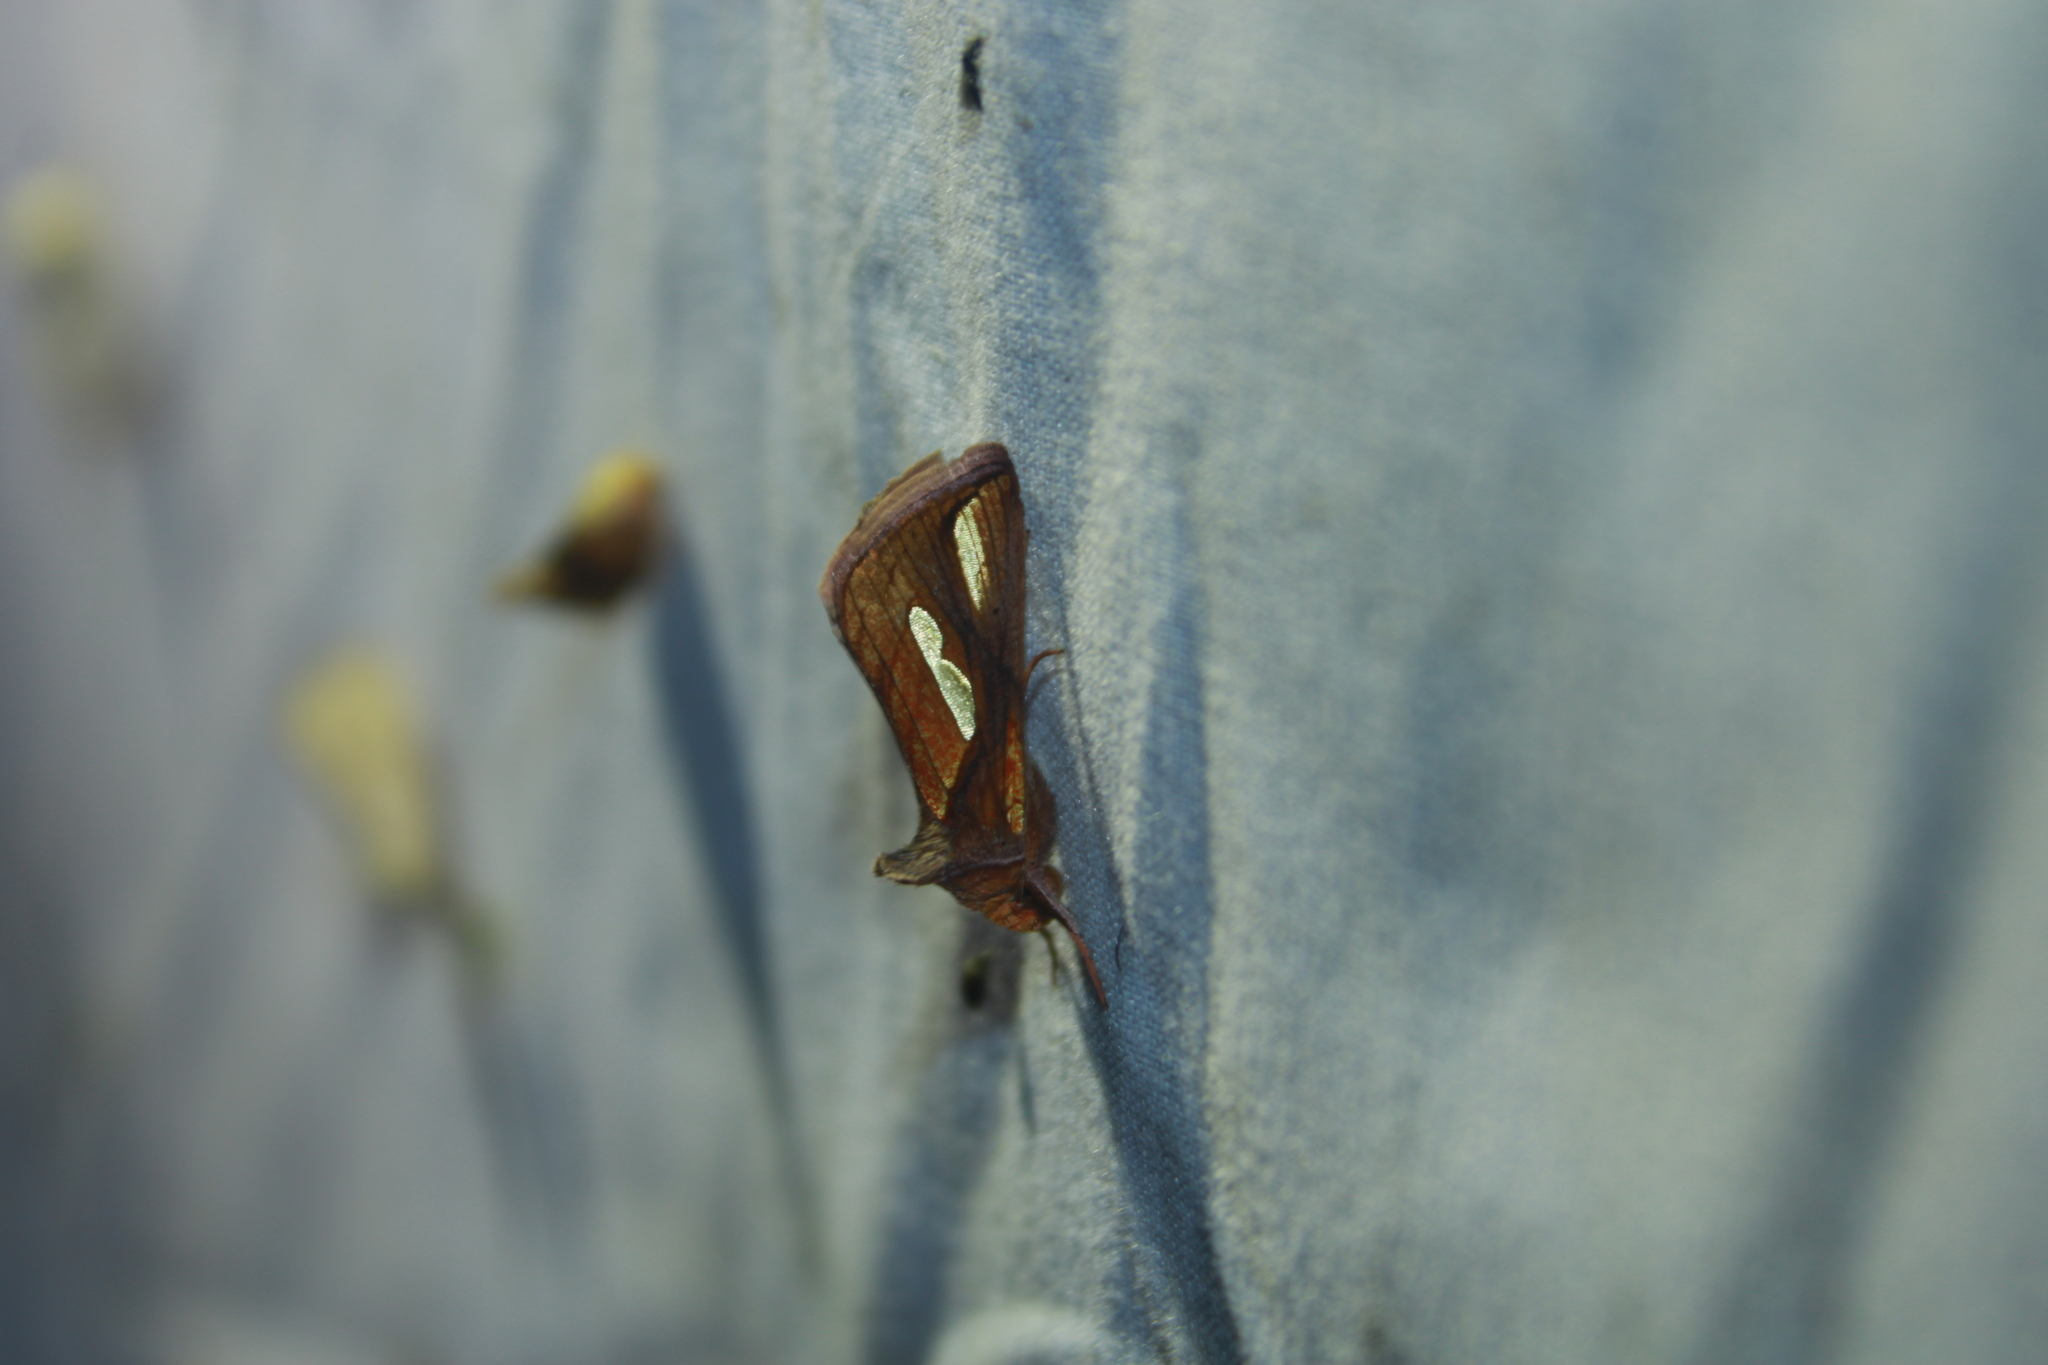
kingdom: Animalia
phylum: Arthropoda
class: Insecta
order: Lepidoptera
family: Noctuidae
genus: Plusia
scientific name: Plusia contexta
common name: Connected looper moth
